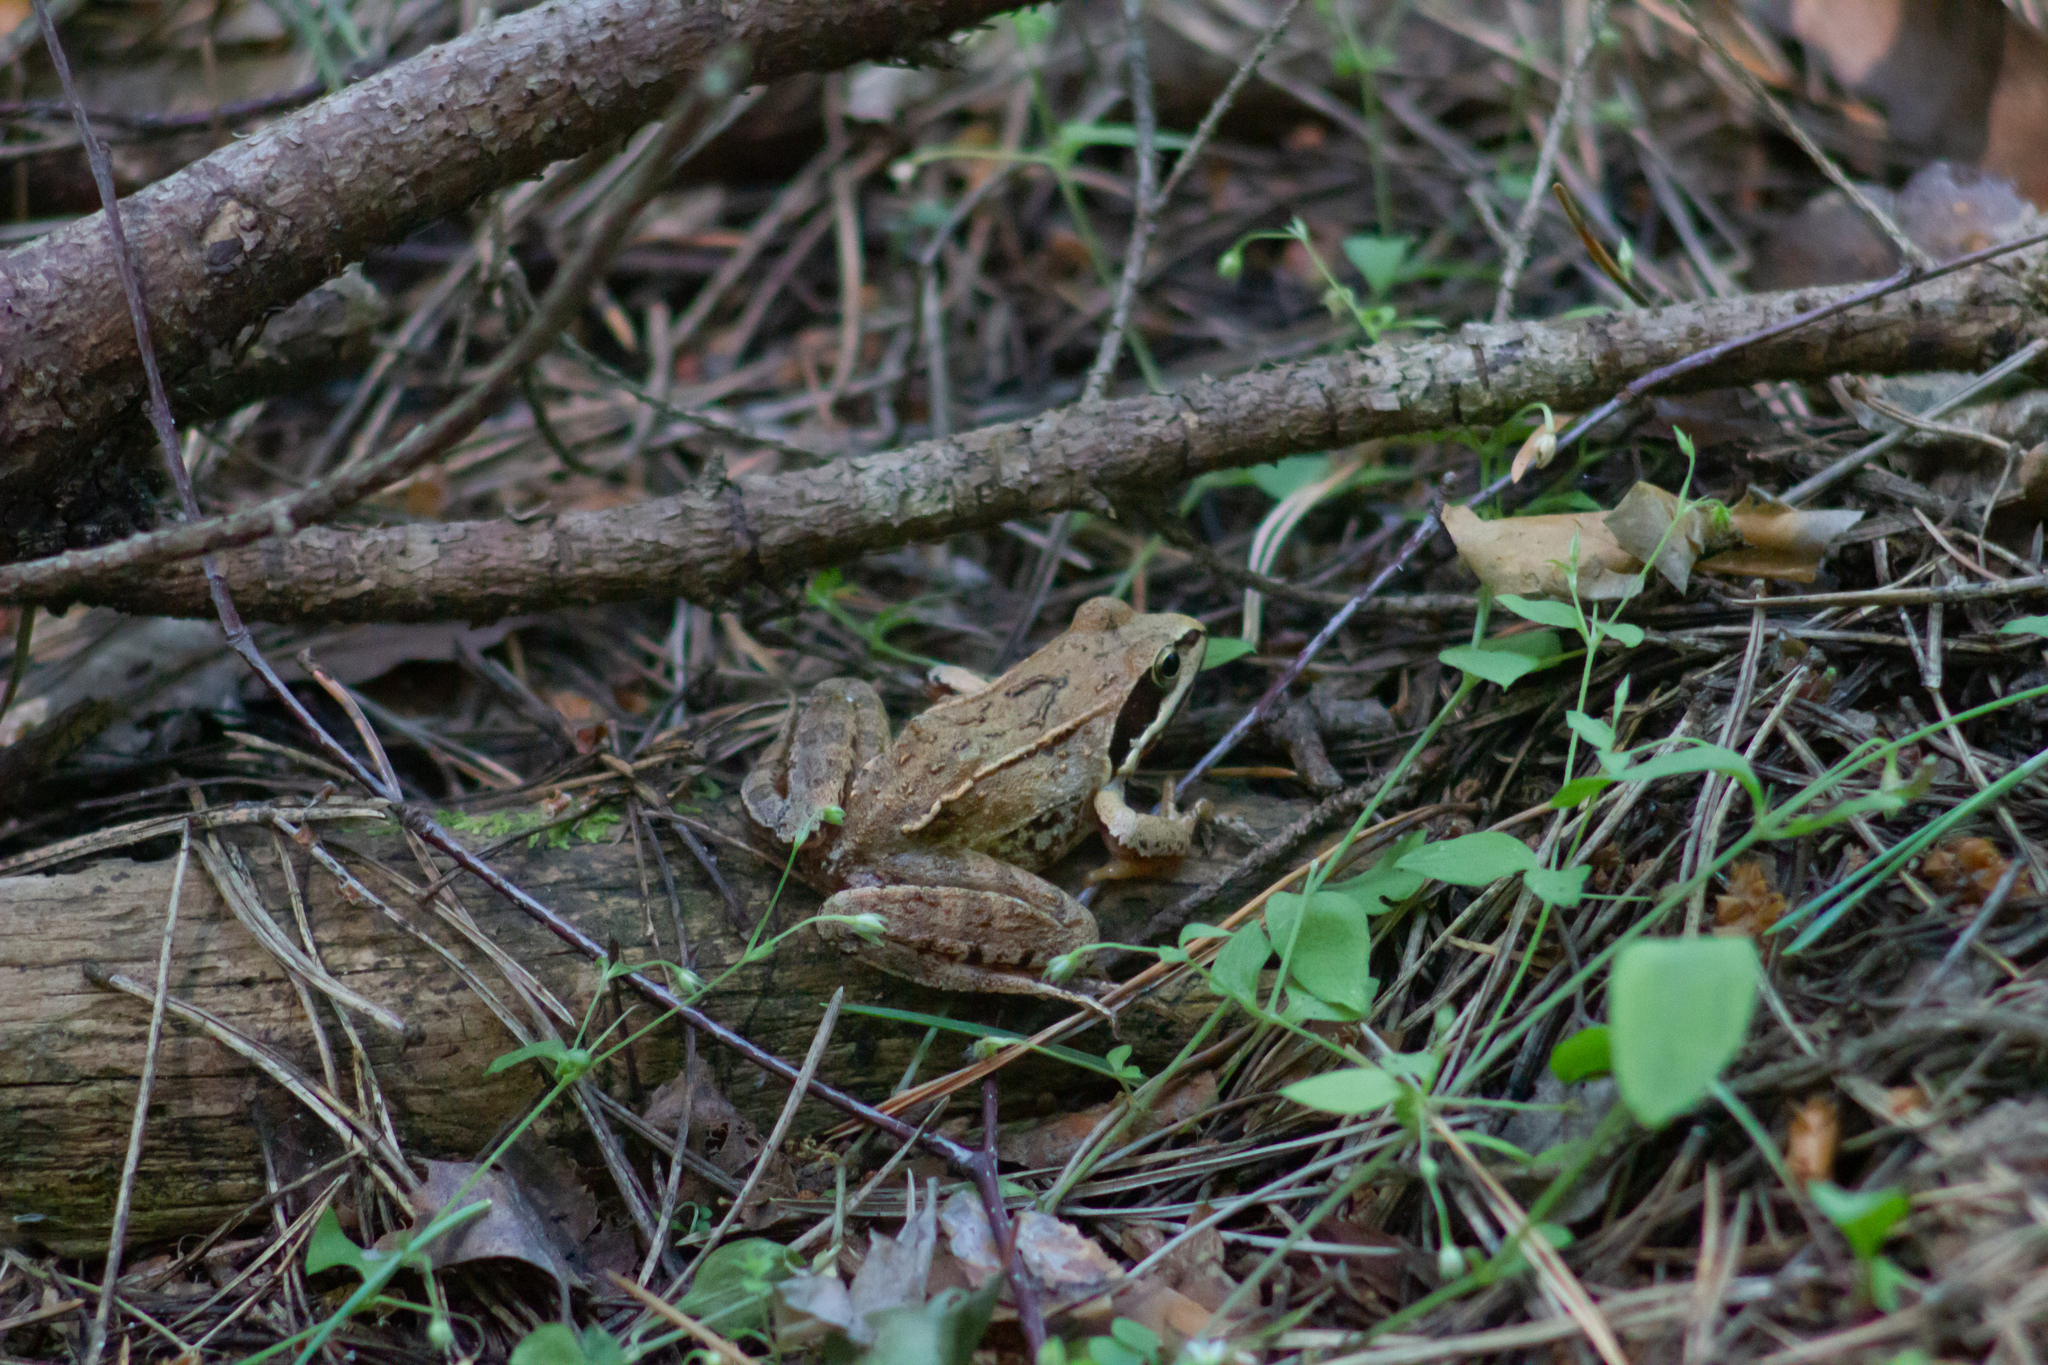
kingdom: Animalia
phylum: Chordata
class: Amphibia
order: Anura
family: Ranidae
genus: Rana
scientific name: Rana arvalis
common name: Moor frog
